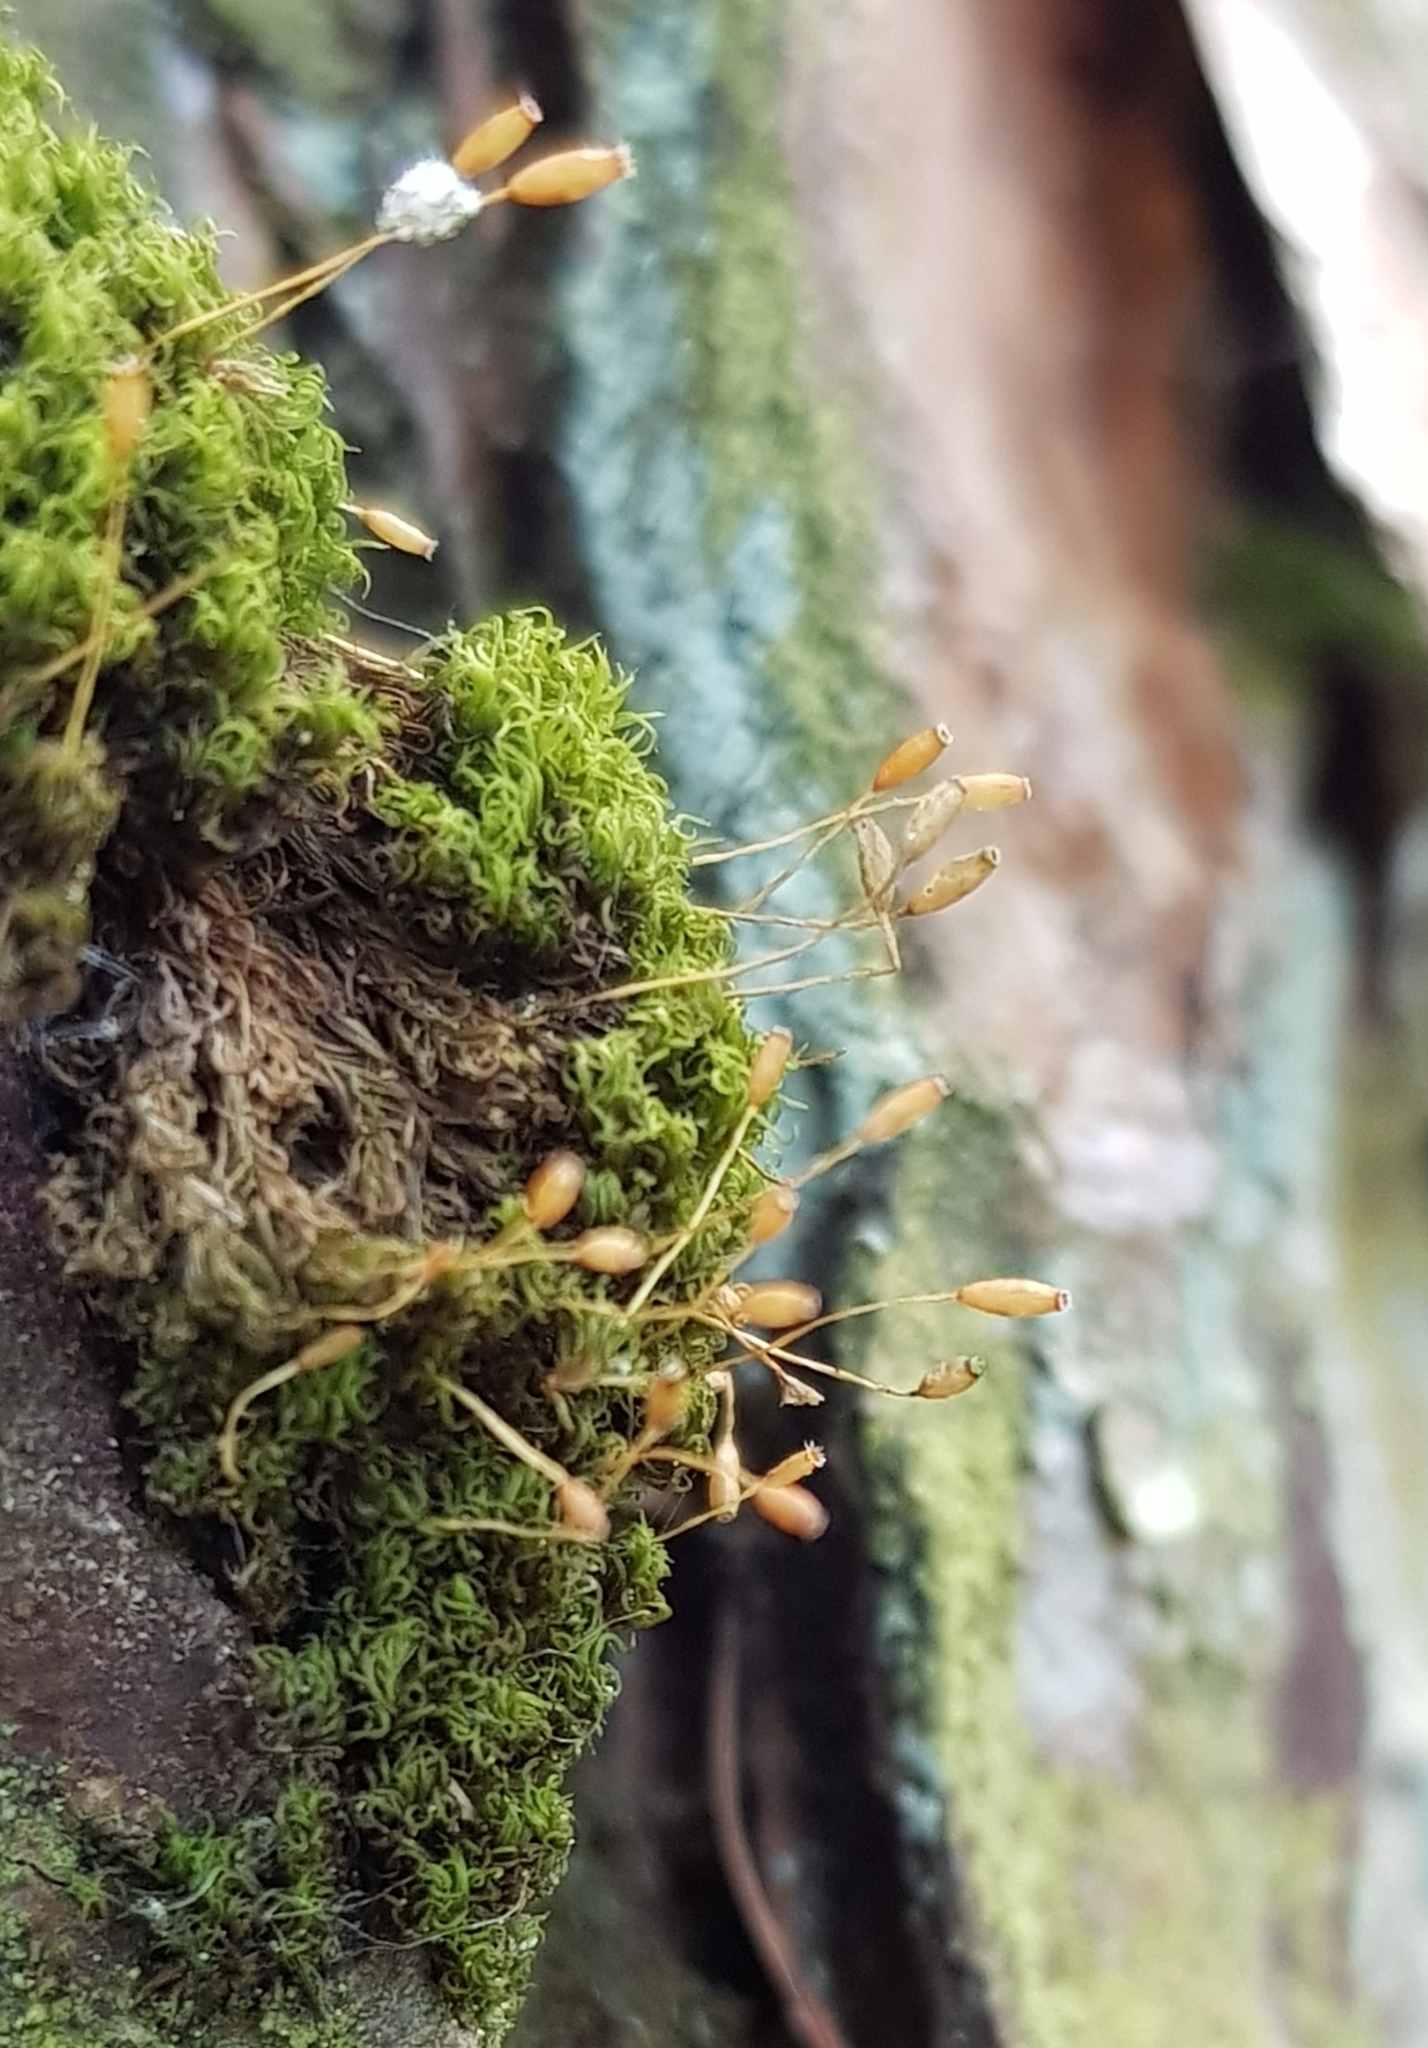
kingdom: Plantae
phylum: Bryophyta
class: Bryopsida
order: Dicranales
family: Rhabdoweisiaceae
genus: Dicranoweisia
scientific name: Dicranoweisia cirrata
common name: Common pincushion
